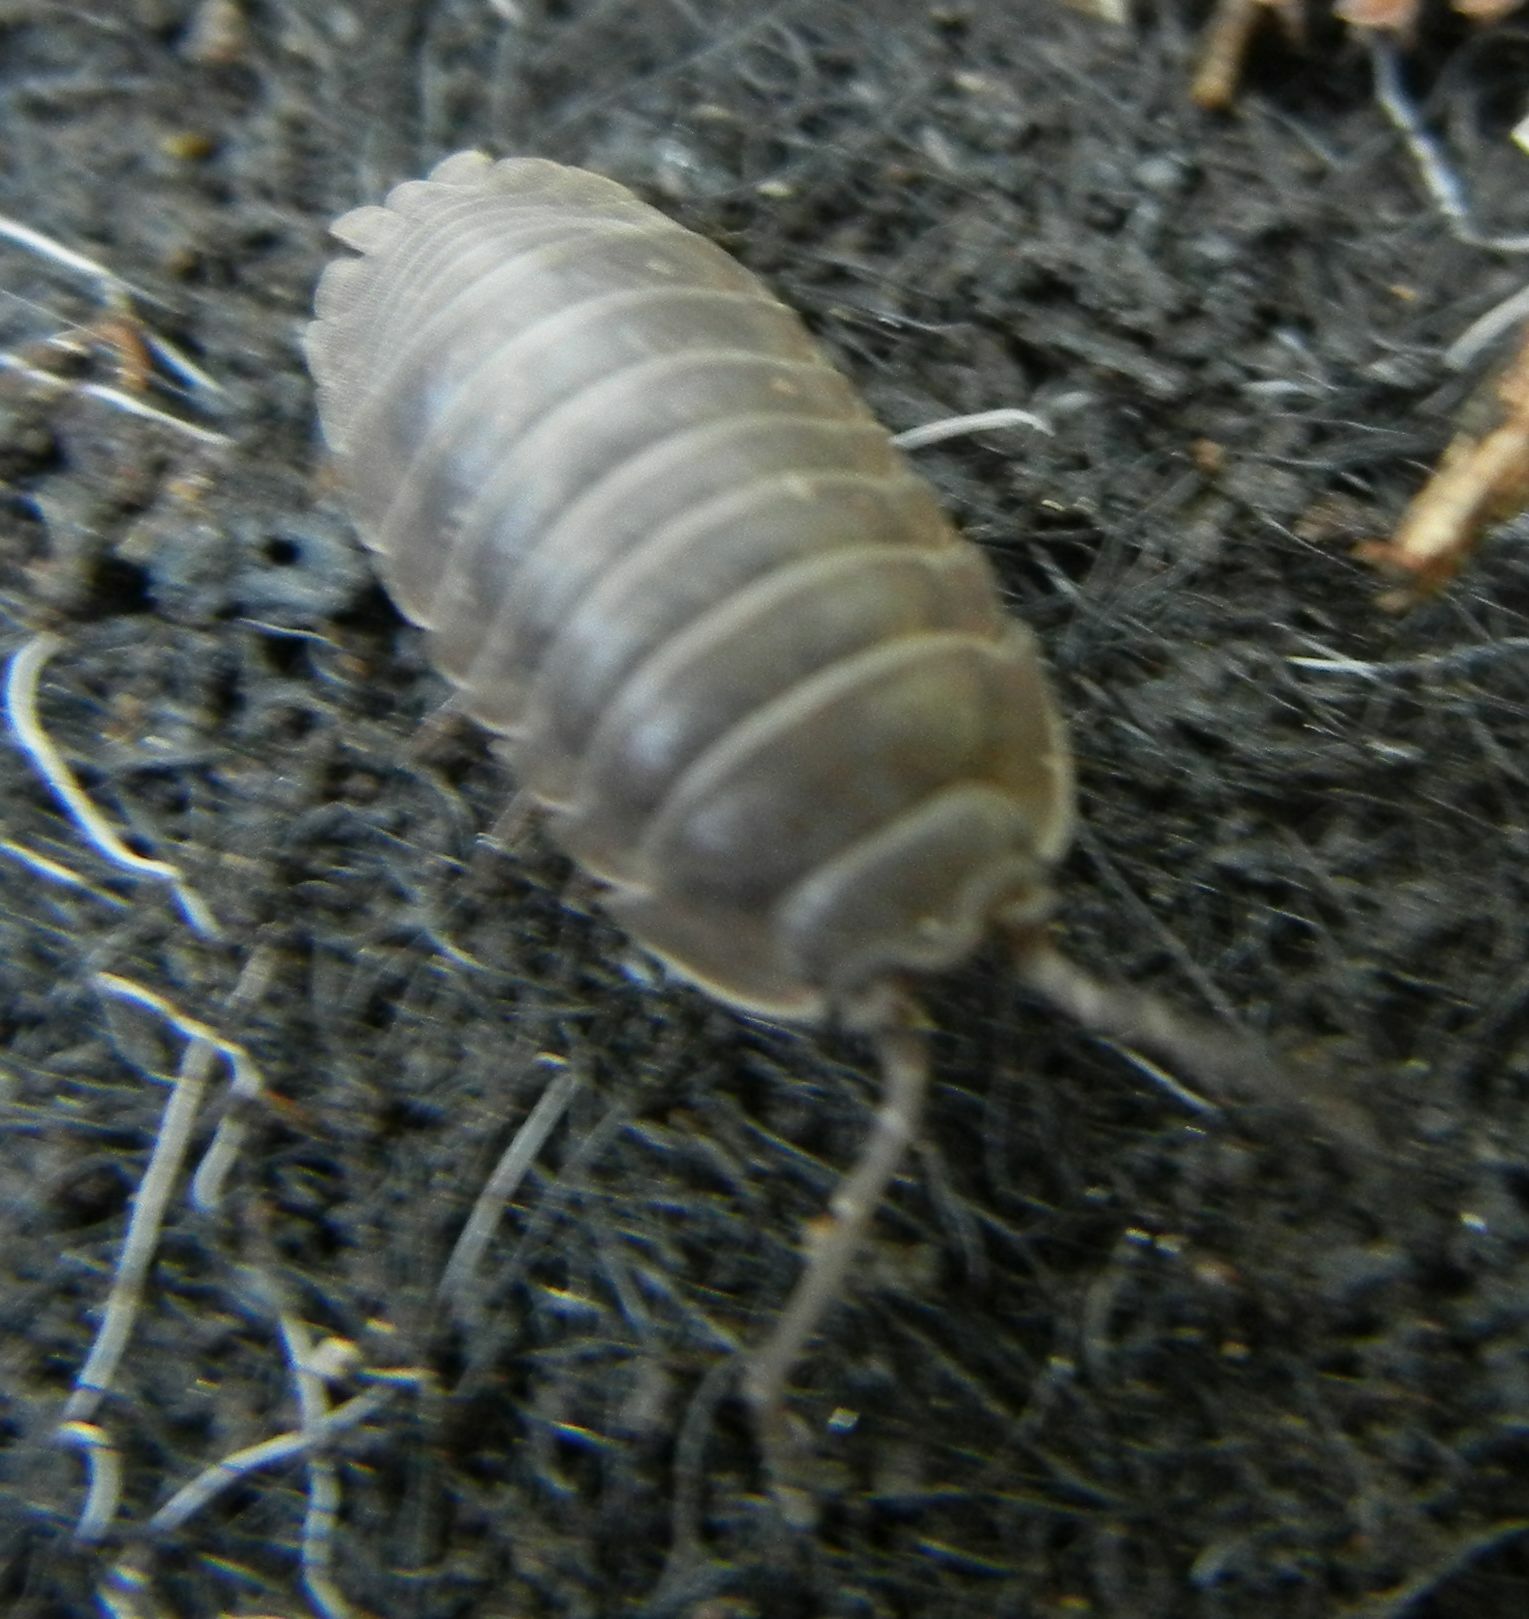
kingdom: Animalia
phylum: Arthropoda
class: Malacostraca
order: Isopoda
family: Armadillidiidae
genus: Armadillidium
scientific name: Armadillidium nasatum
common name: Isopod
